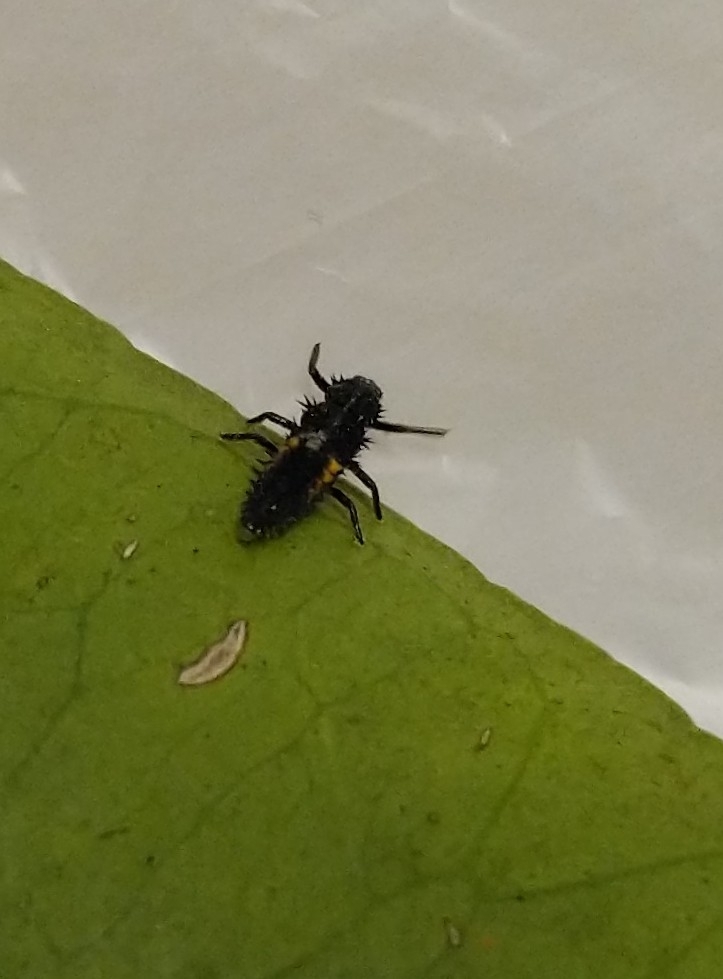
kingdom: Animalia
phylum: Arthropoda
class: Insecta
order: Coleoptera
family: Coccinellidae
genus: Harmonia
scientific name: Harmonia axyridis
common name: Harlequin ladybird
